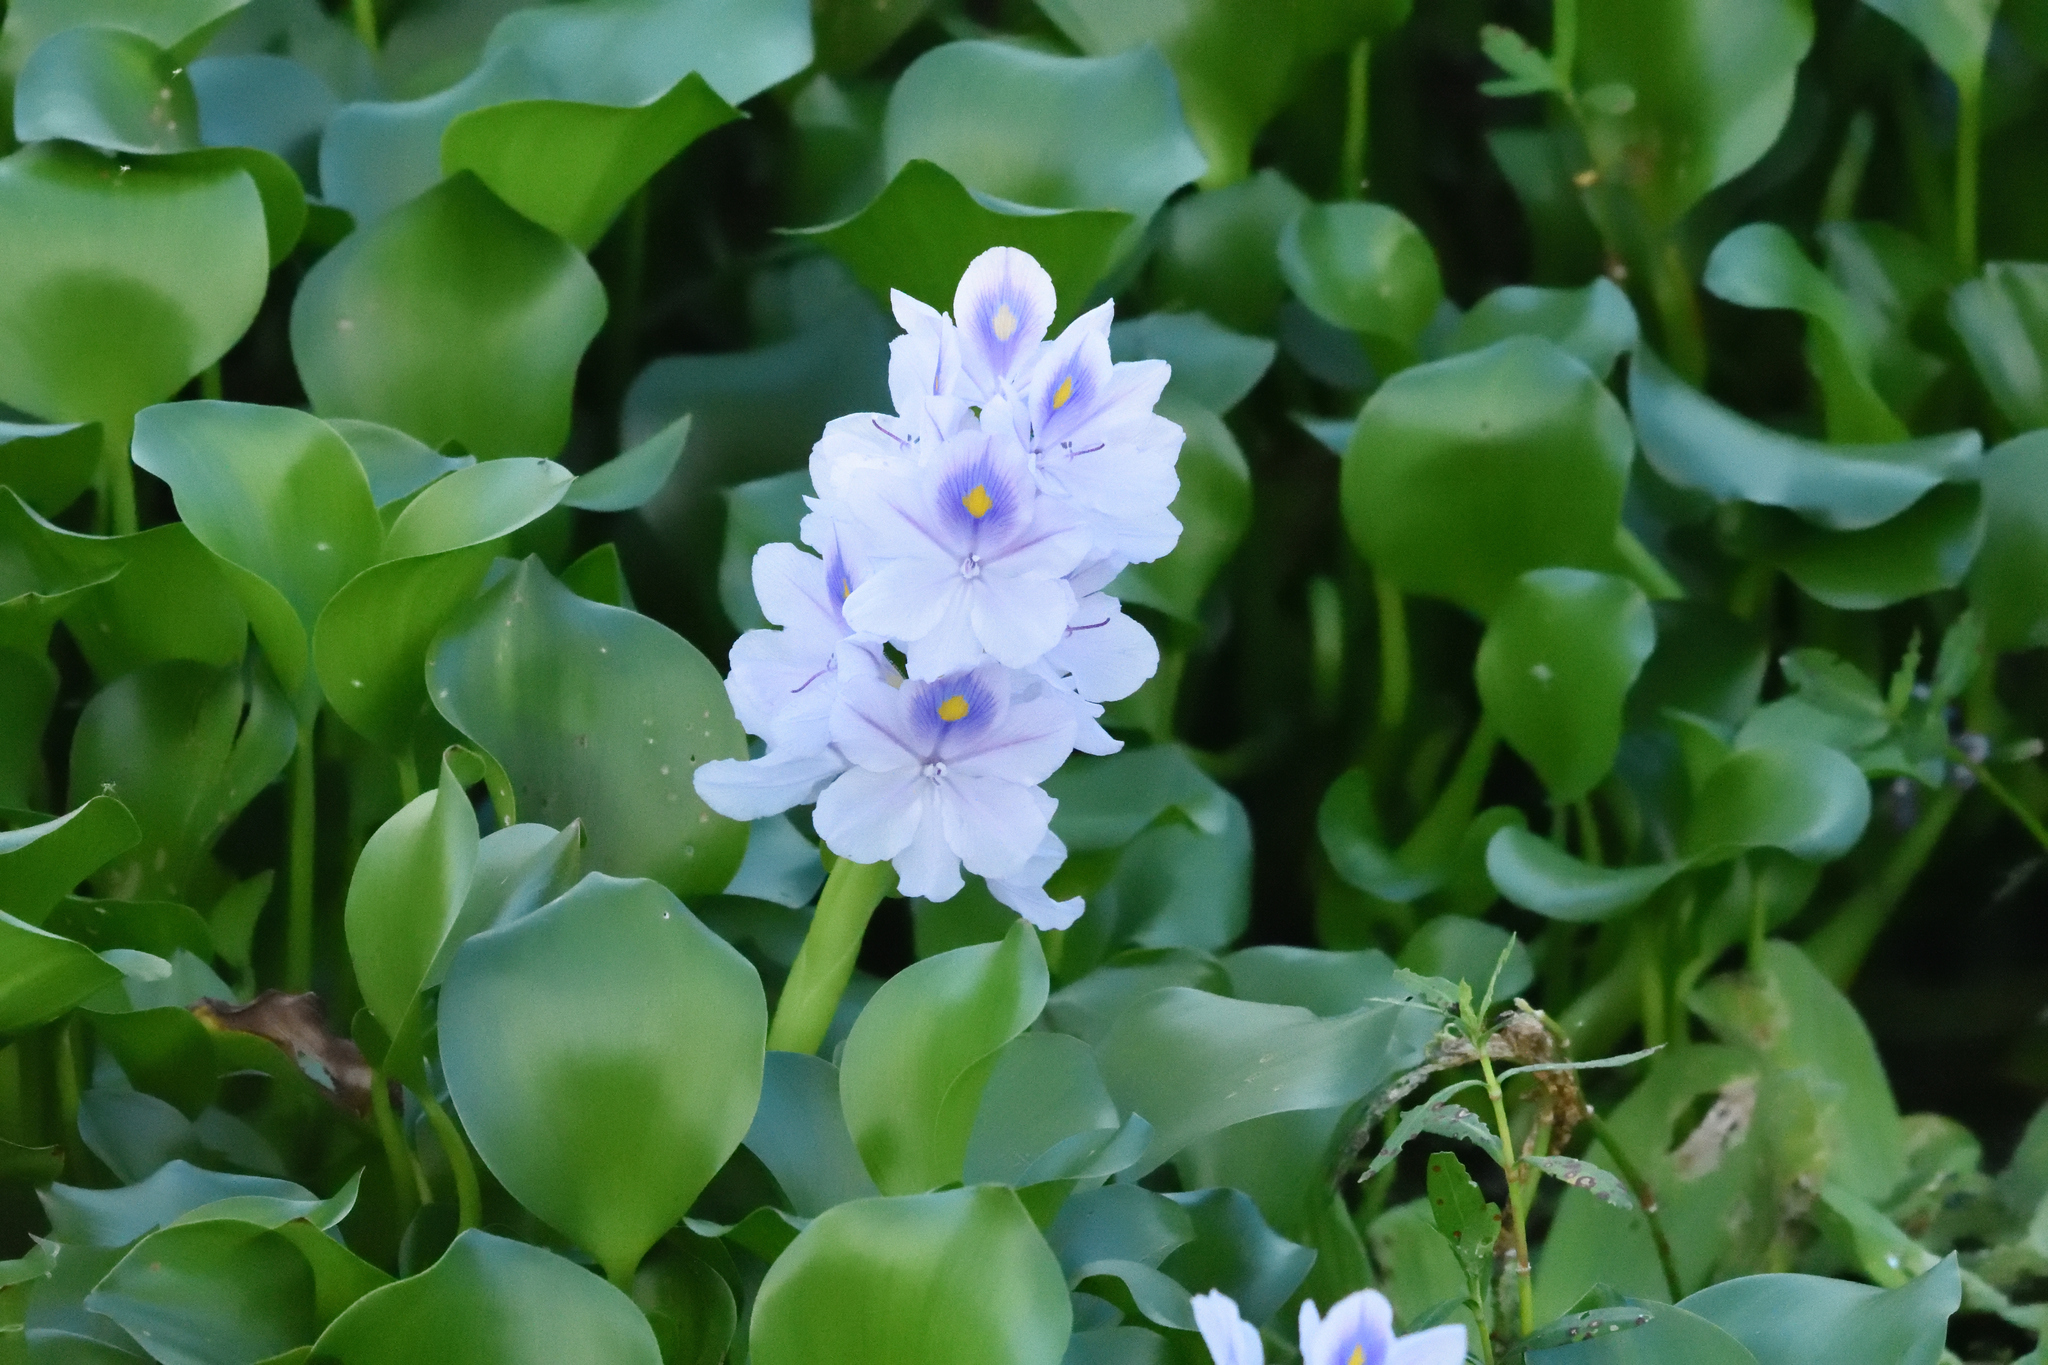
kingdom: Plantae
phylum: Tracheophyta
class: Liliopsida
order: Commelinales
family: Pontederiaceae
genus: Pontederia
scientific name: Pontederia crassipes
